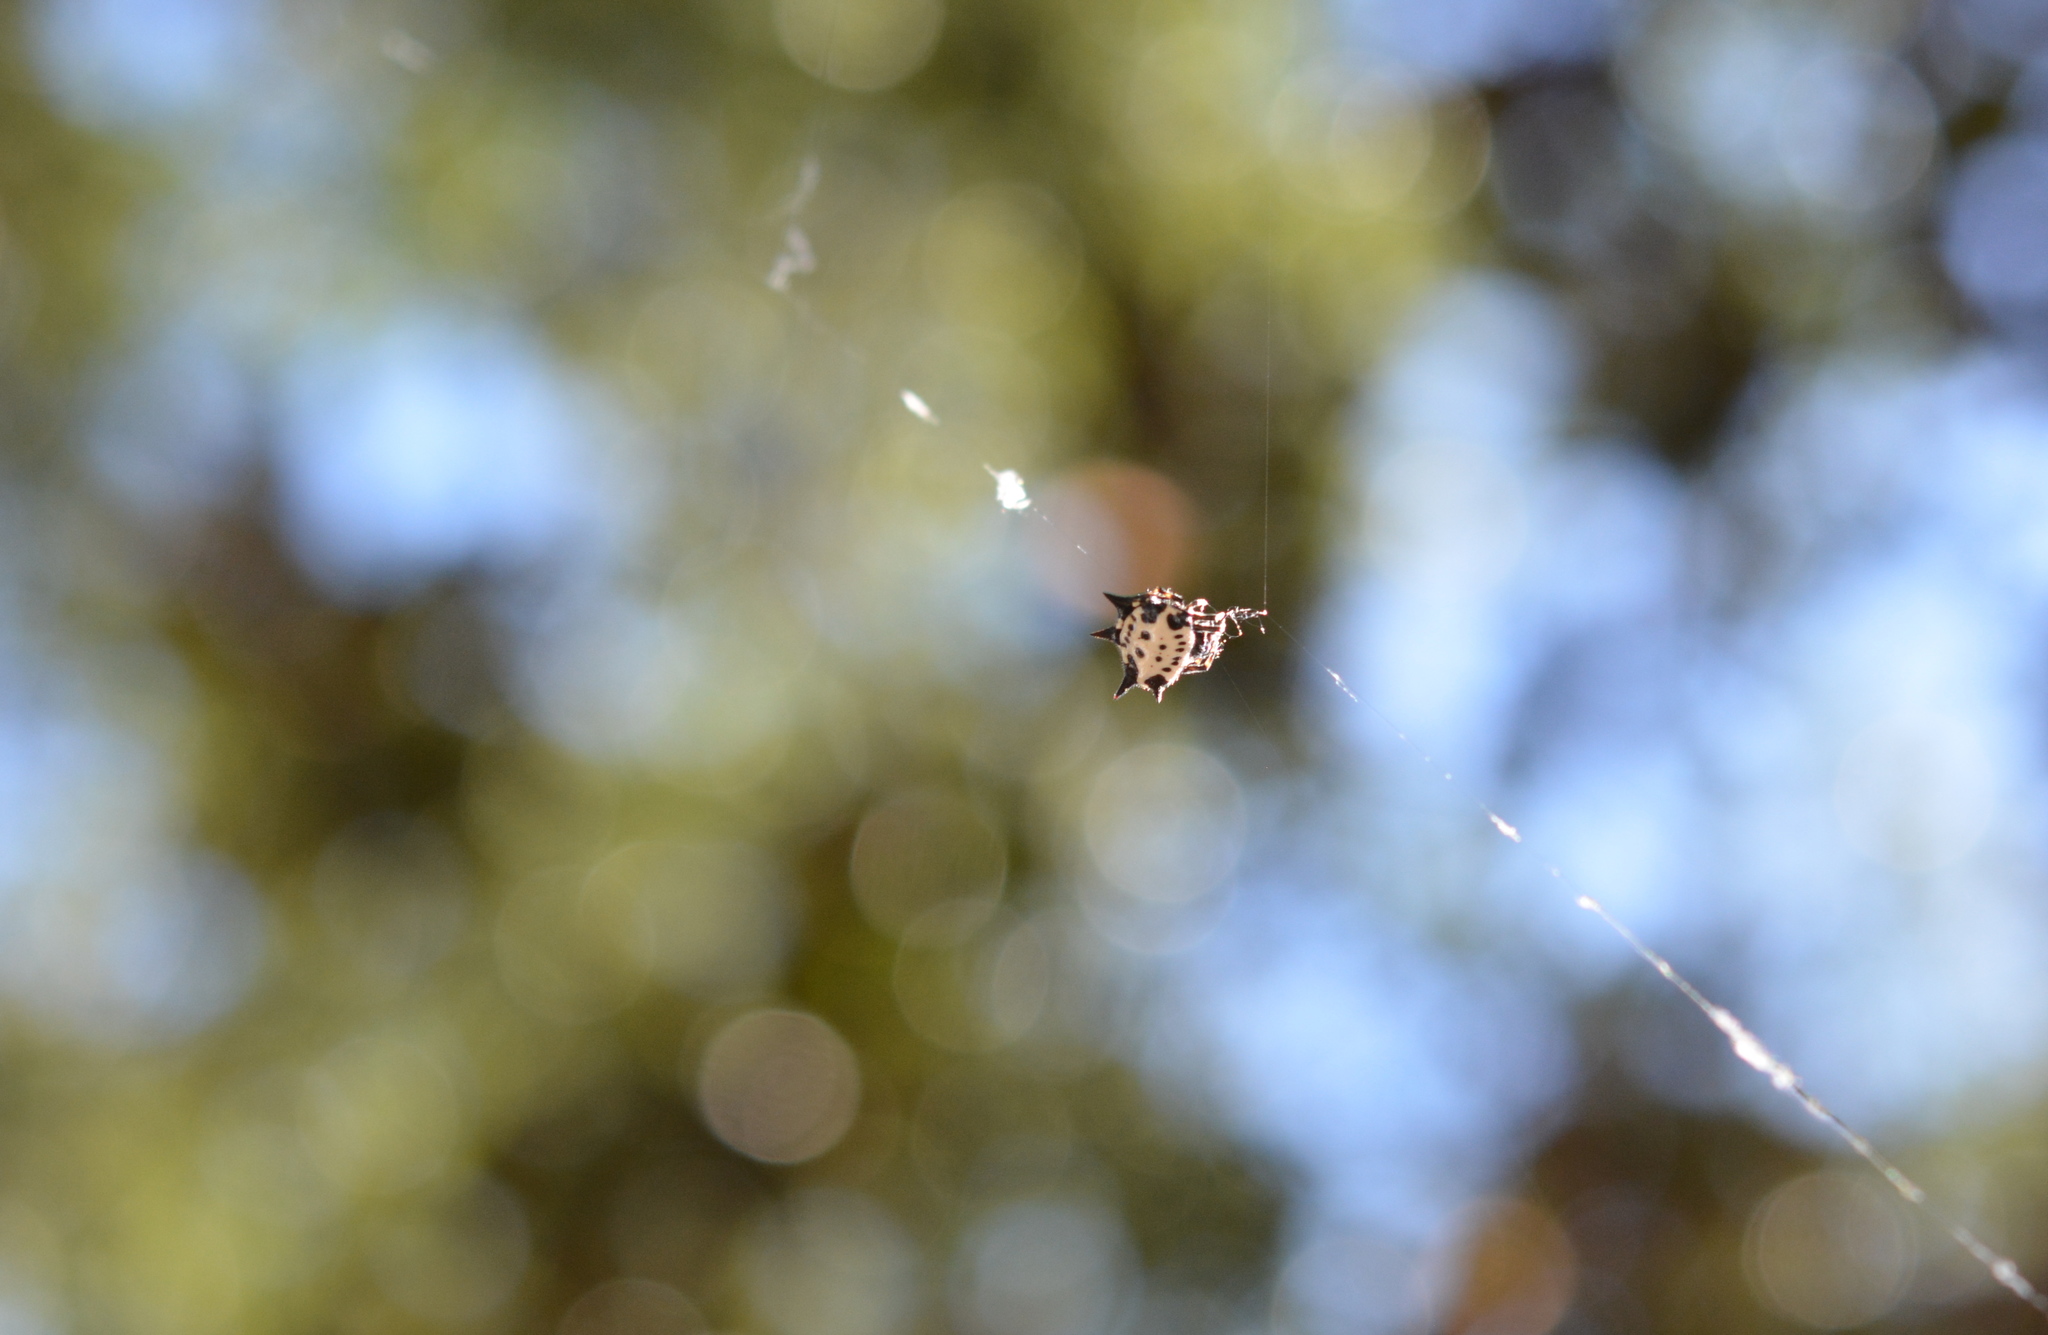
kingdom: Animalia
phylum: Arthropoda
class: Arachnida
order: Araneae
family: Araneidae
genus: Gasteracantha
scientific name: Gasteracantha cancriformis
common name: Orb weavers
